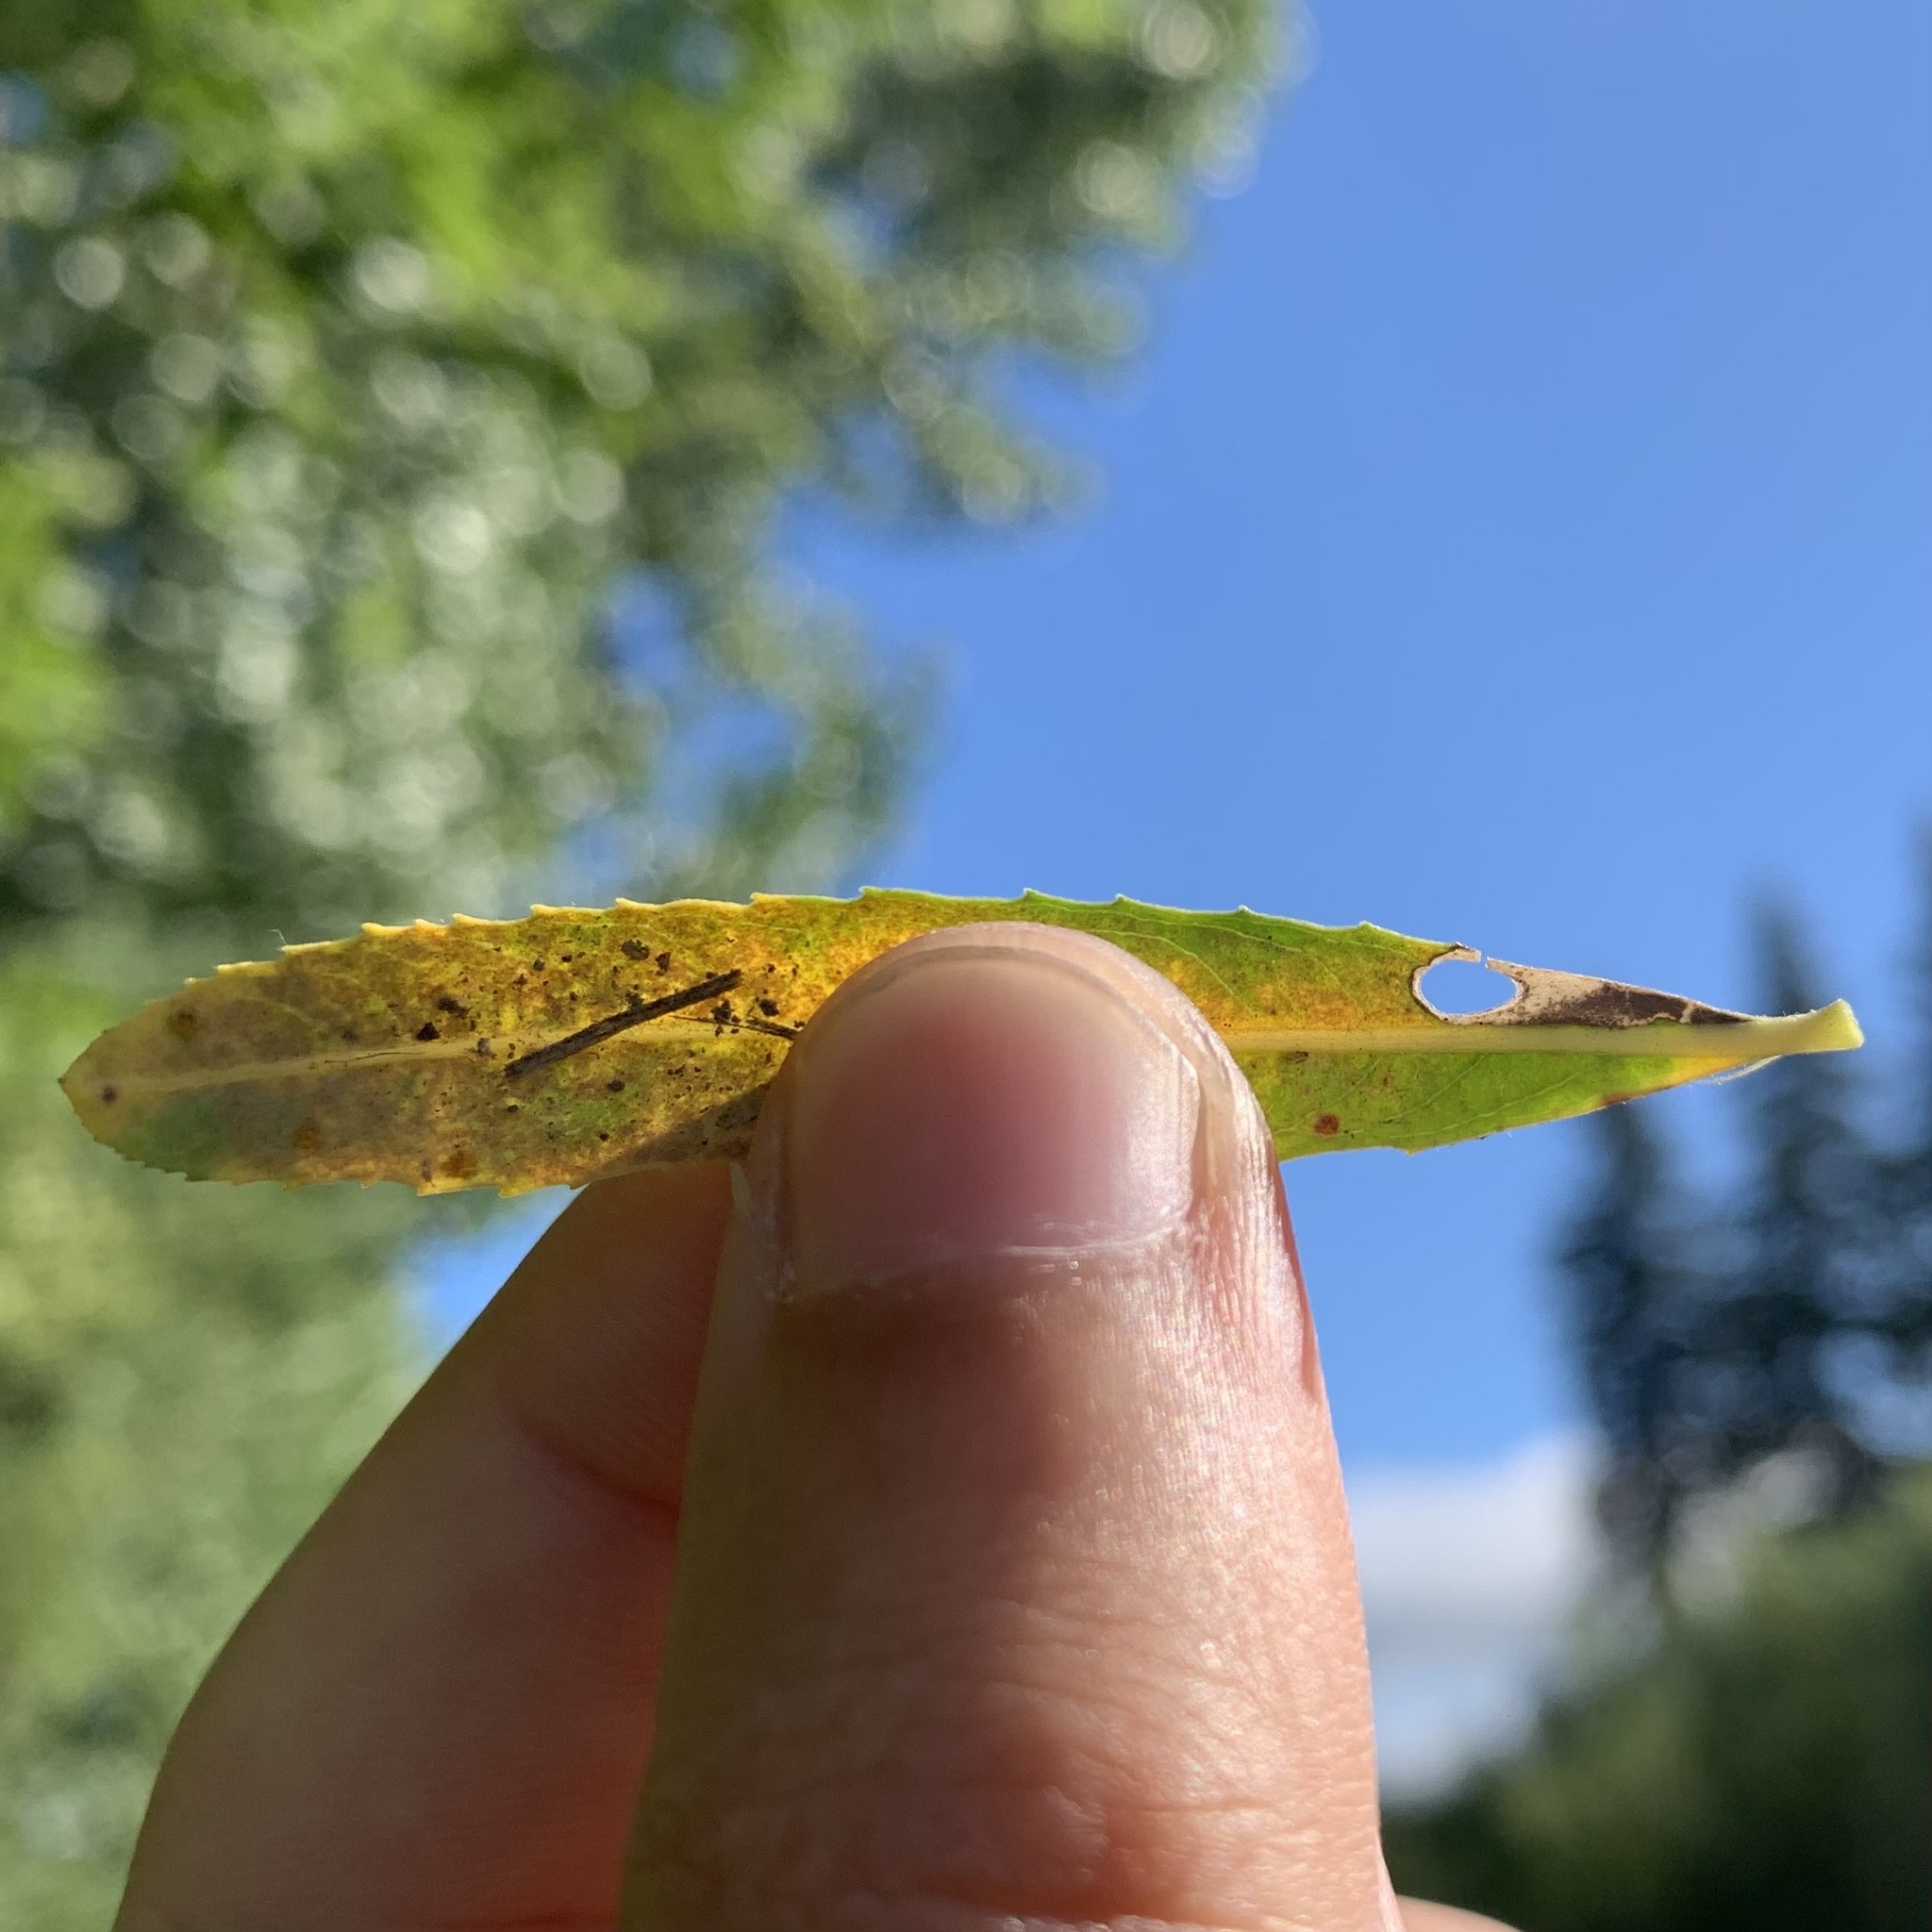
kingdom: Animalia
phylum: Arthropoda
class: Insecta
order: Lepidoptera
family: Heliozelidae
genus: Coptodisca
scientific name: Coptodisca saliciella
